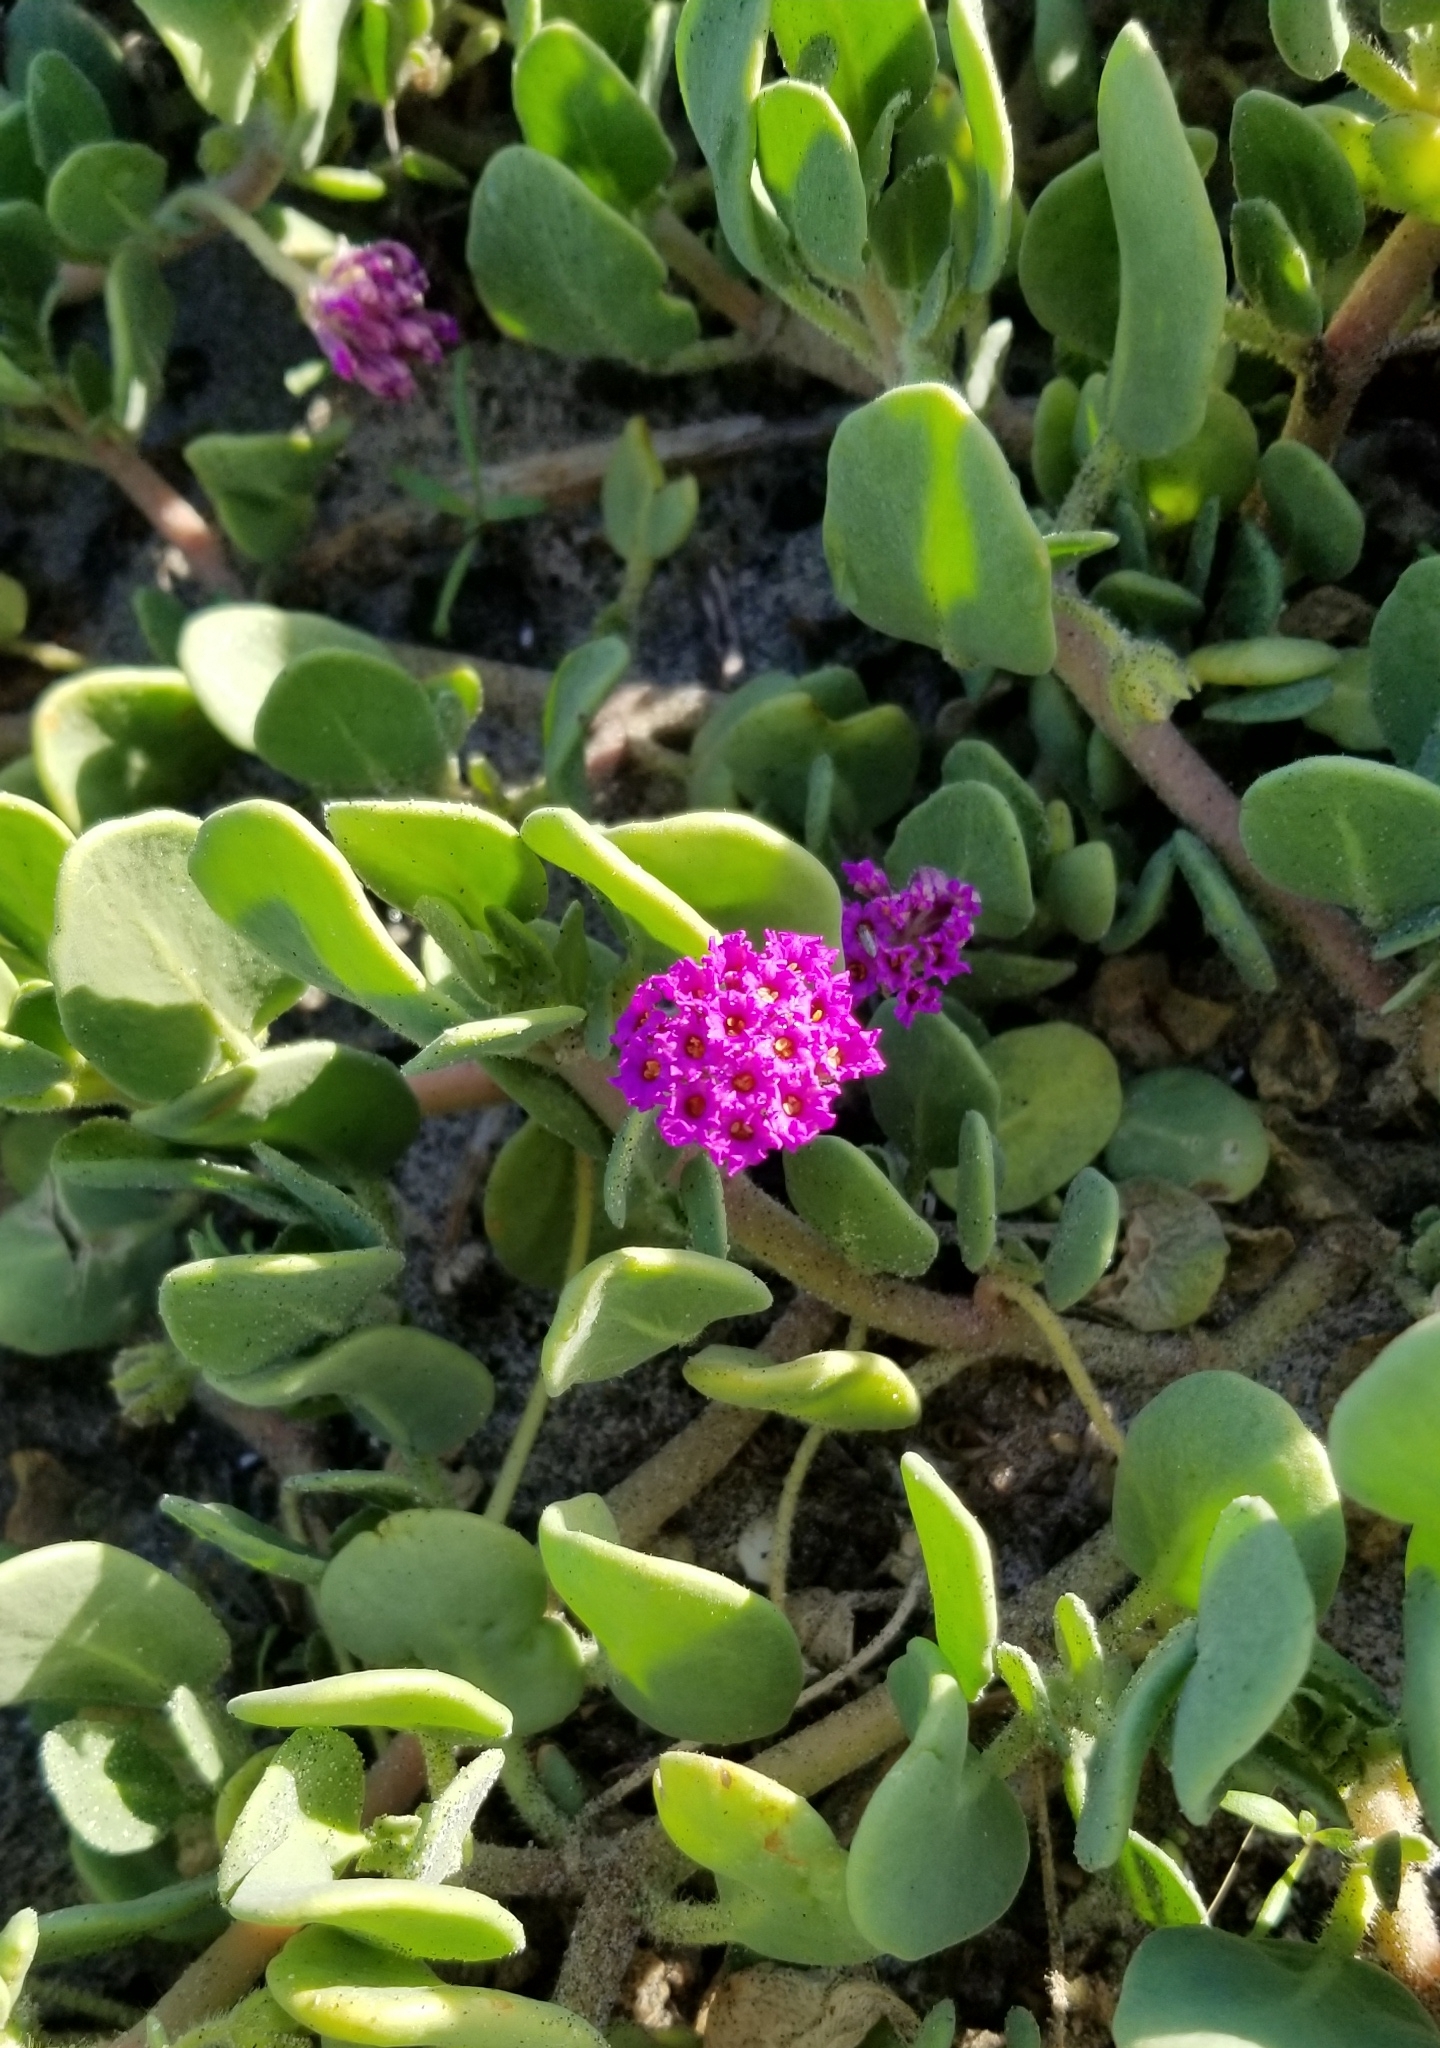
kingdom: Plantae
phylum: Tracheophyta
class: Magnoliopsida
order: Caryophyllales
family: Nyctaginaceae
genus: Abronia
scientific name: Abronia maritima
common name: Red sand-verbena
